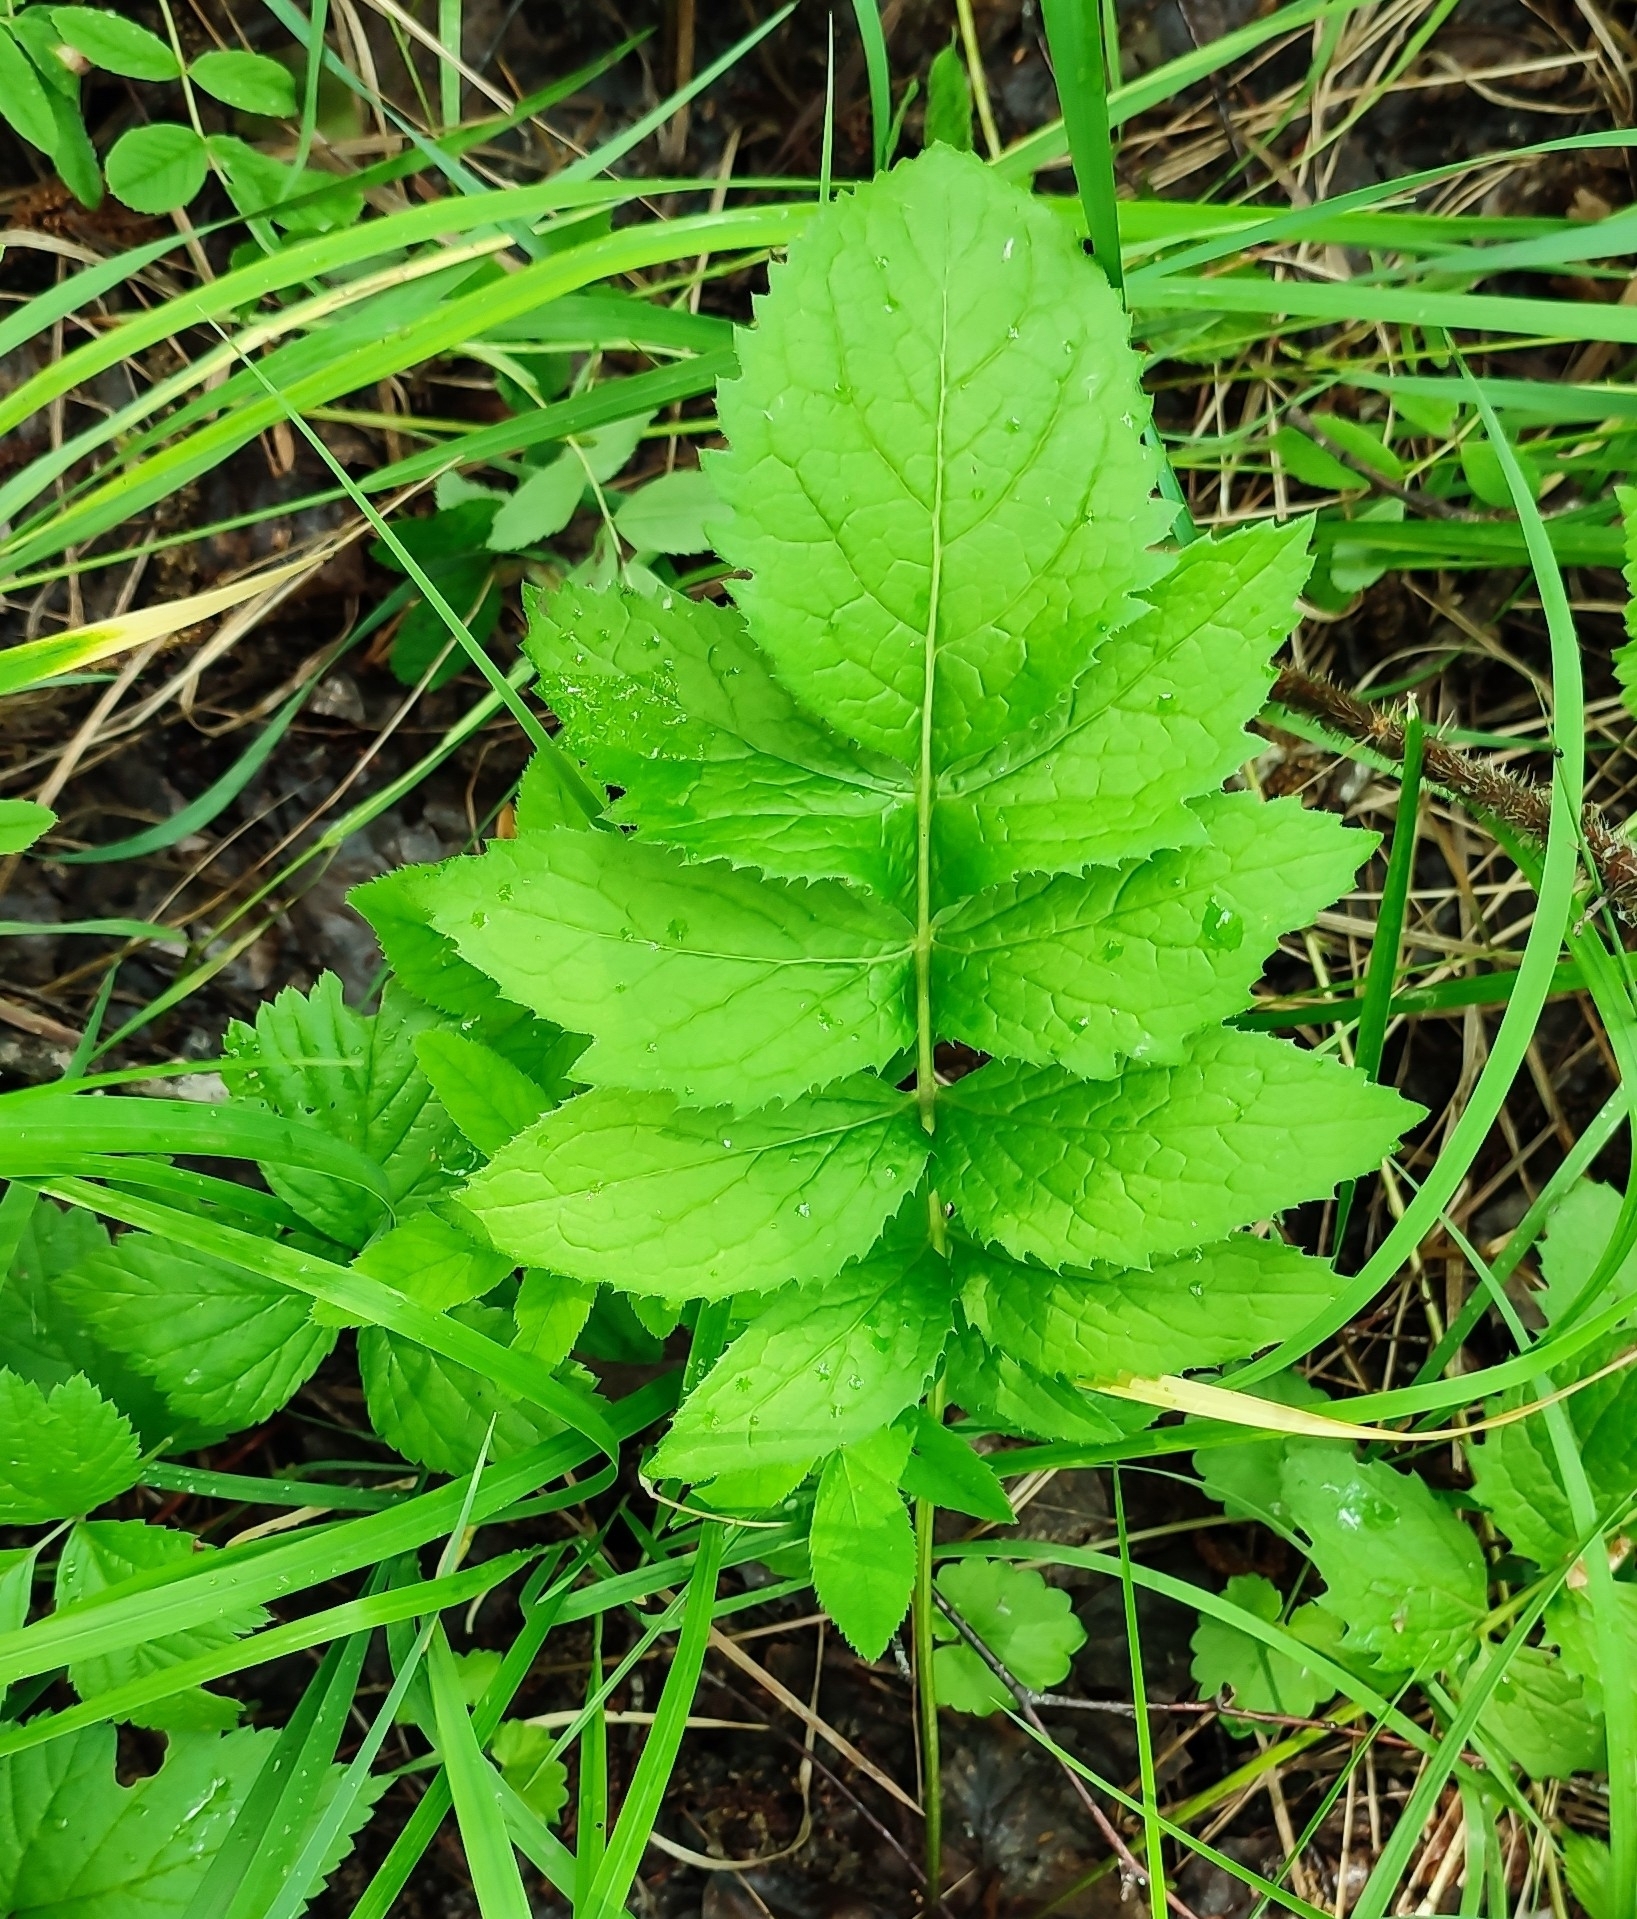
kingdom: Plantae
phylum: Tracheophyta
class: Magnoliopsida
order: Asterales
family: Asteraceae
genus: Serratula
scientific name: Serratula coronata
